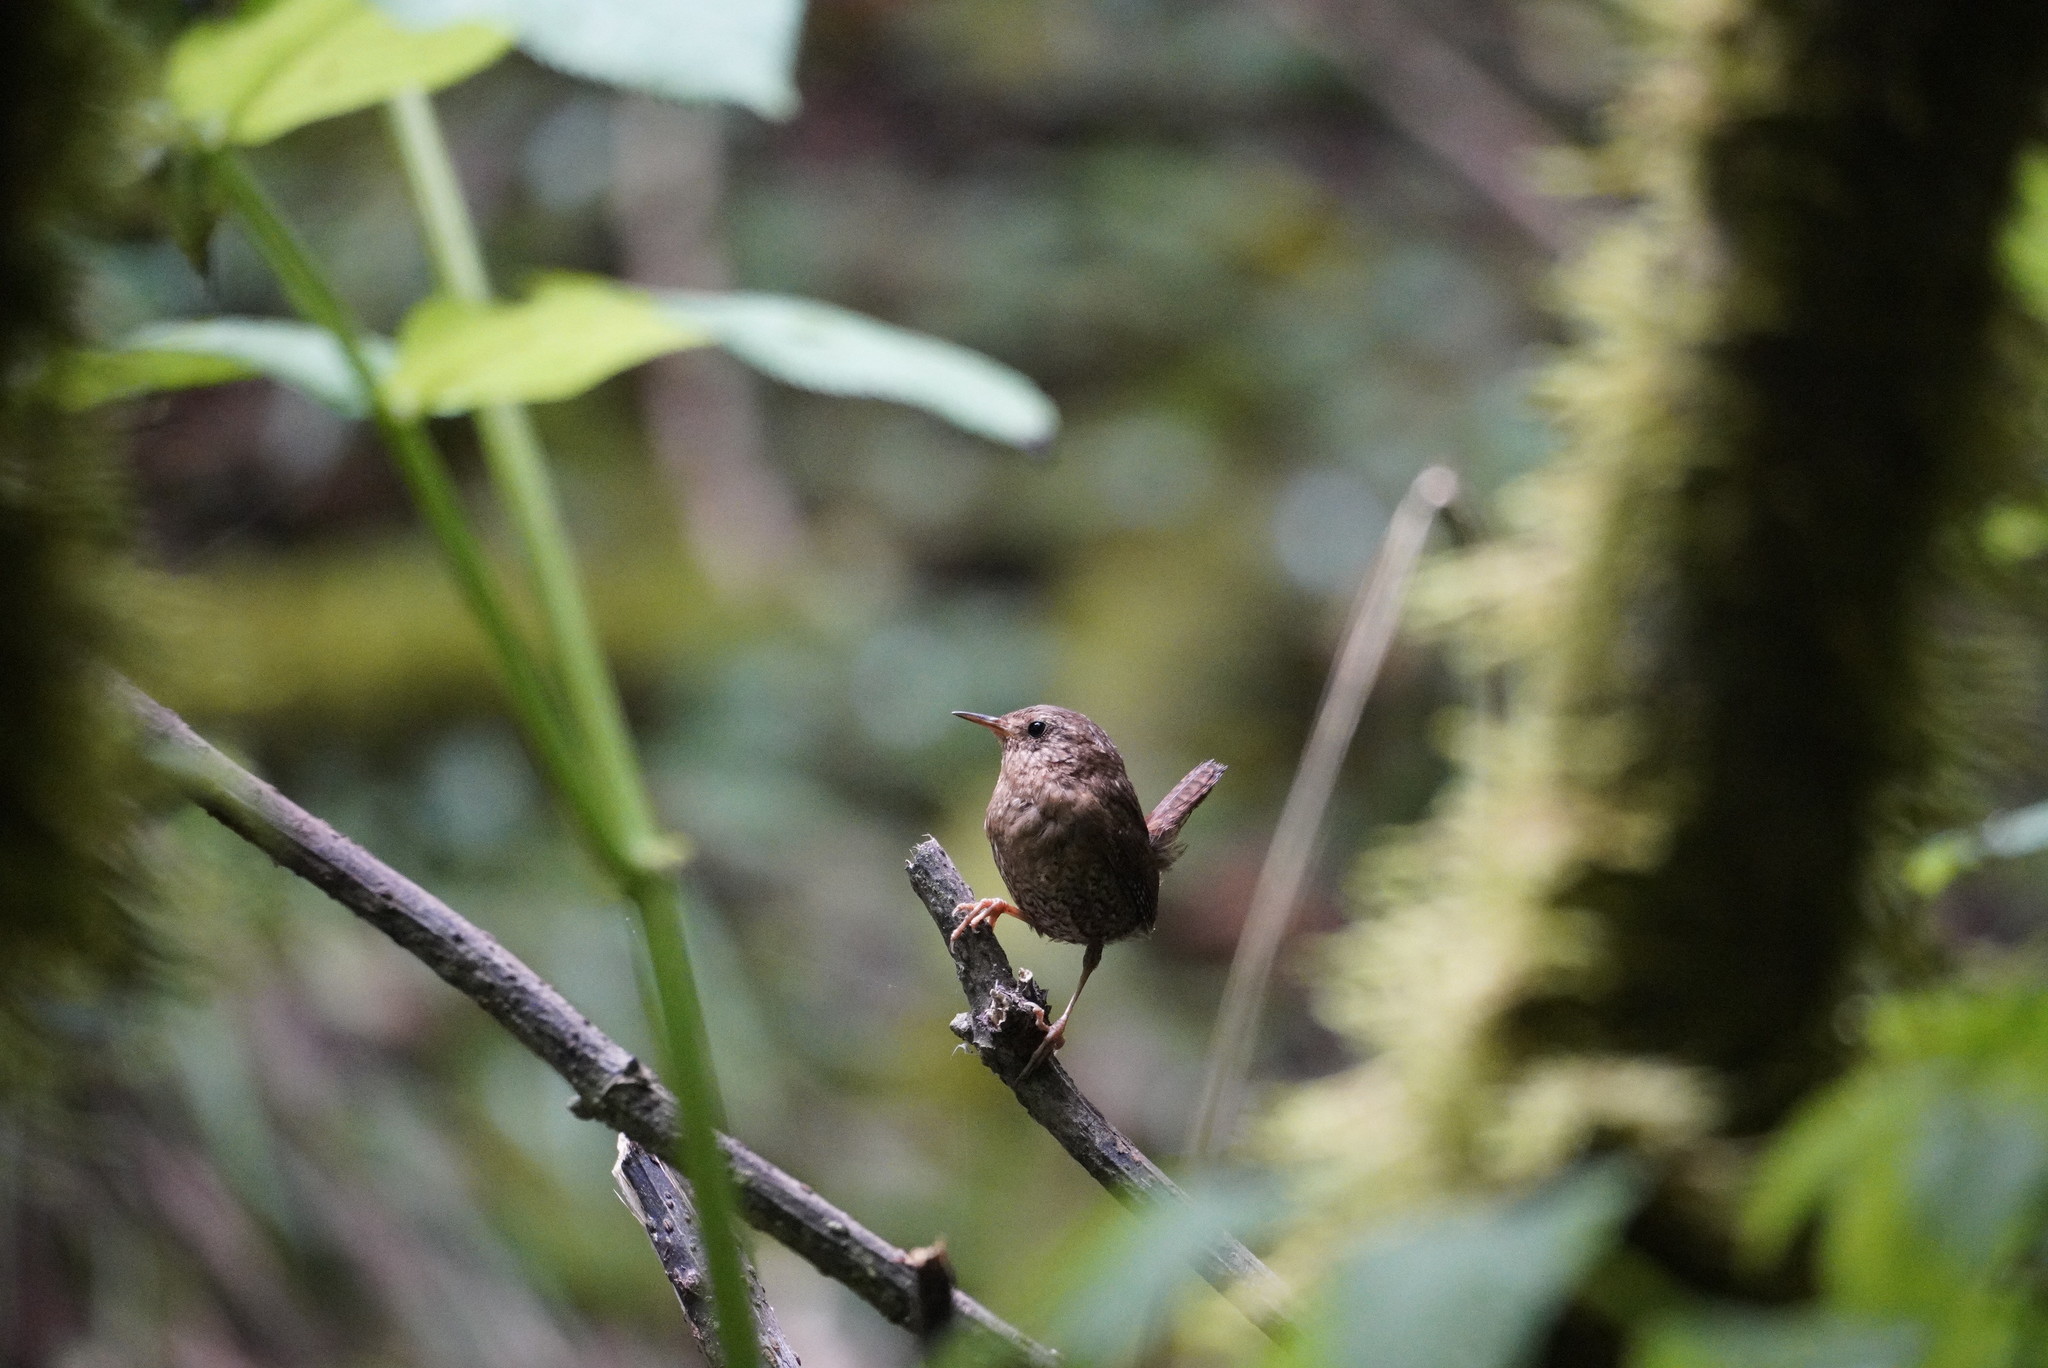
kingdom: Animalia
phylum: Chordata
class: Aves
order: Passeriformes
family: Troglodytidae
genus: Troglodytes
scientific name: Troglodytes pacificus
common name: Pacific wren
